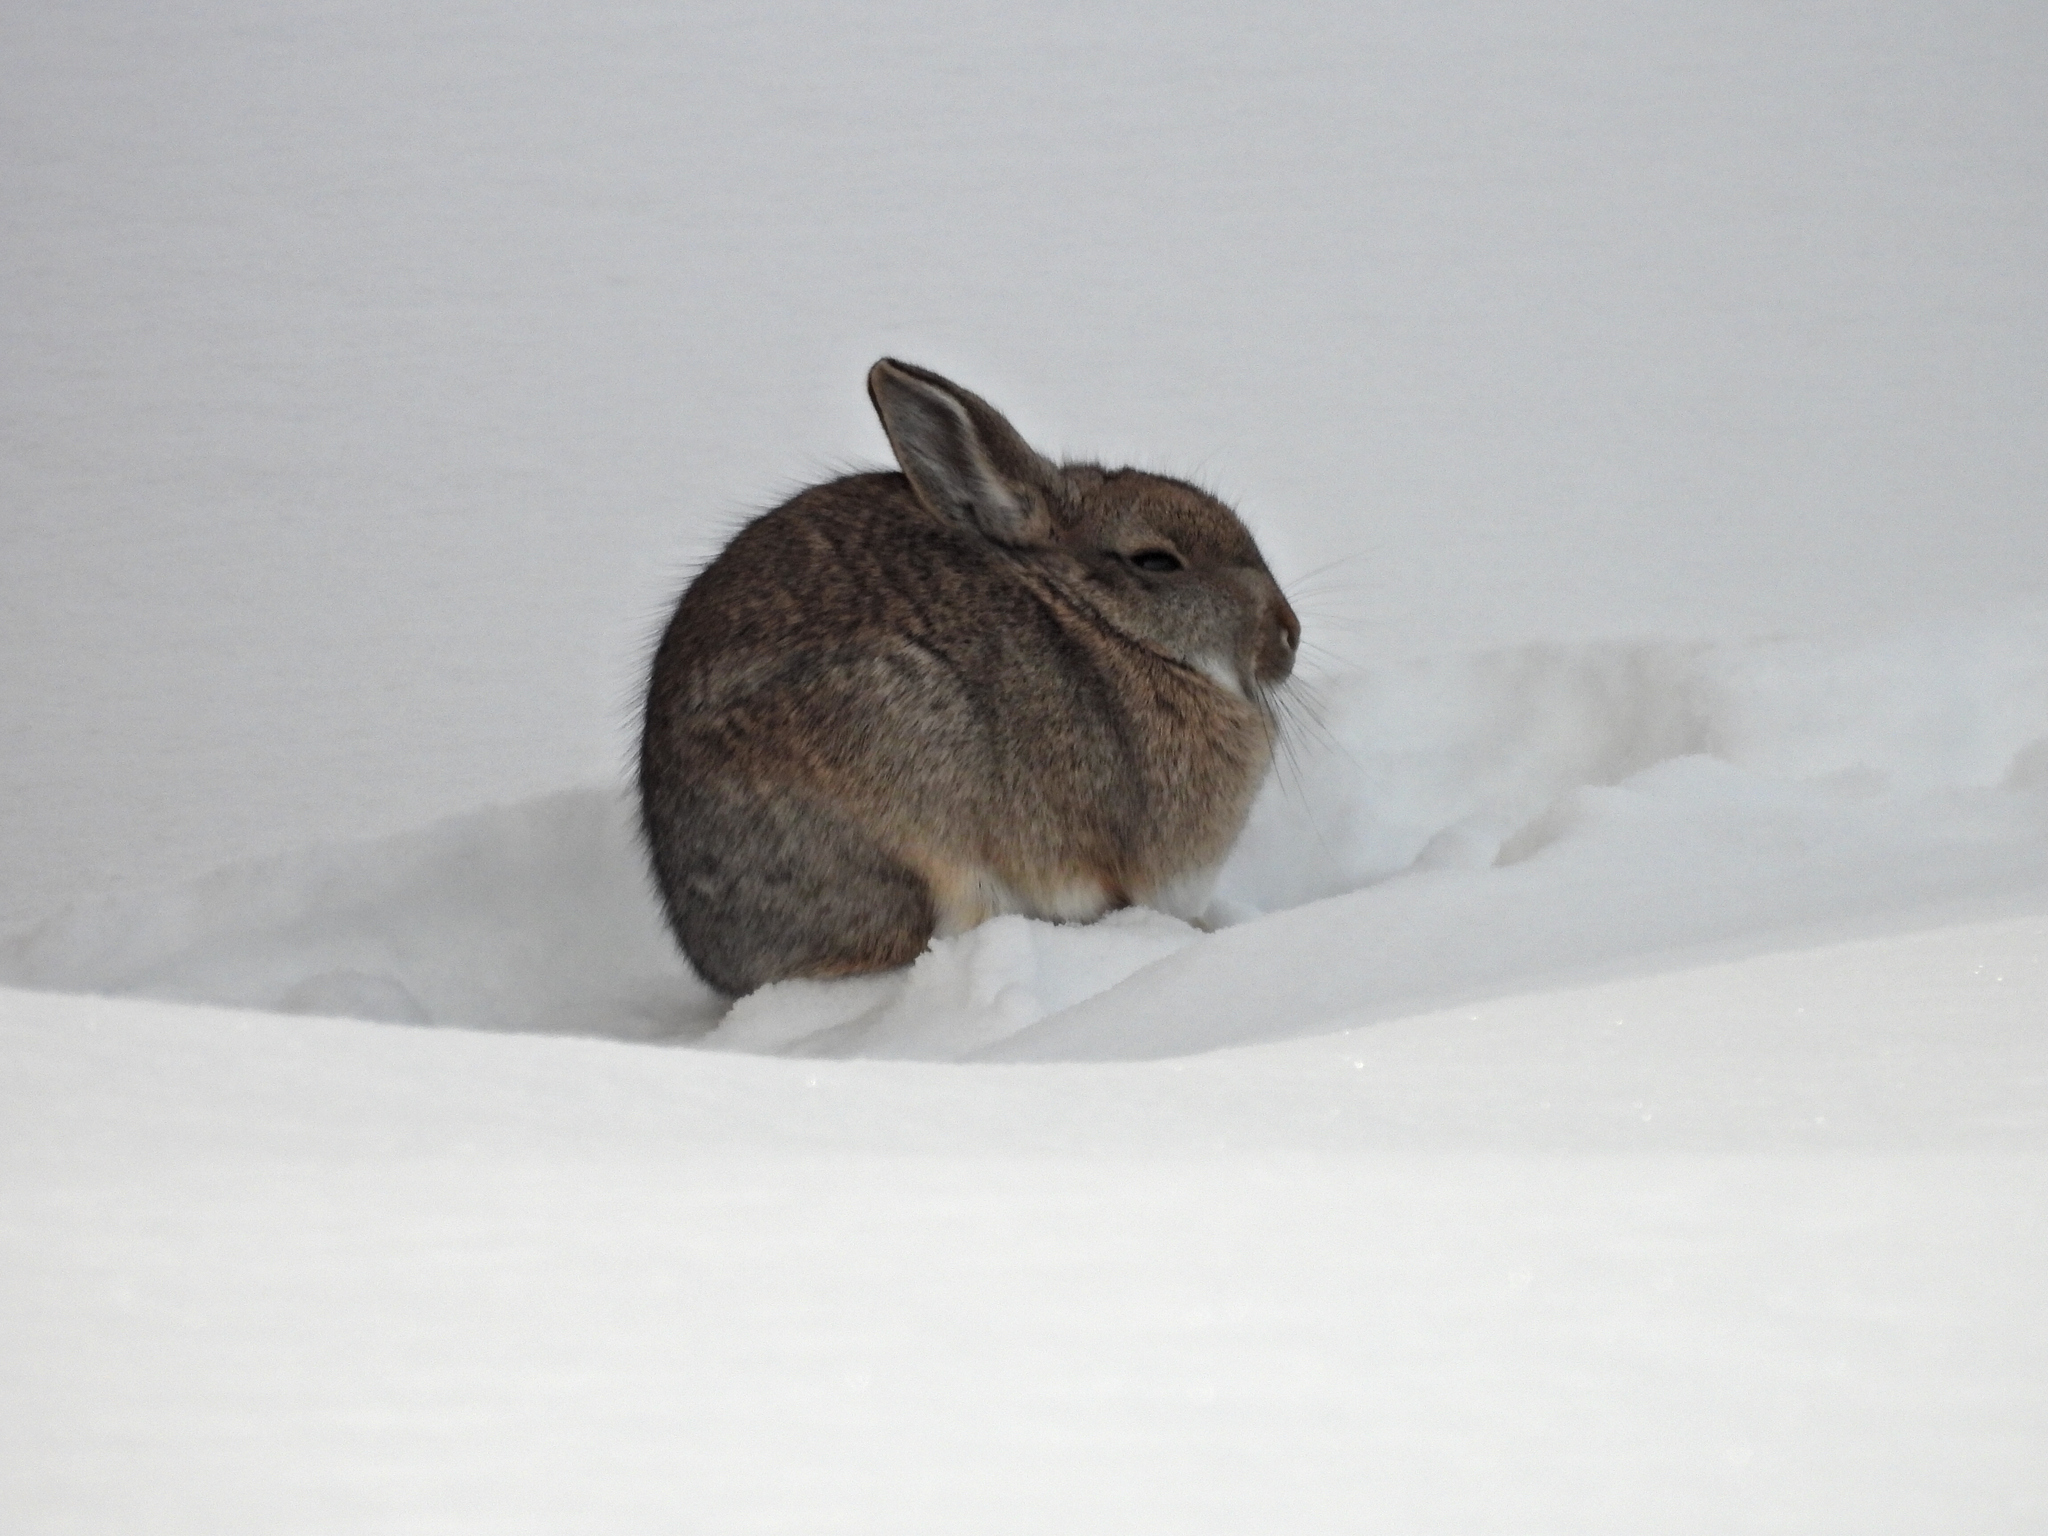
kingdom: Animalia
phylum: Chordata
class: Mammalia
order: Lagomorpha
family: Leporidae
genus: Sylvilagus
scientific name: Sylvilagus nuttallii
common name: Mountain cottontail
